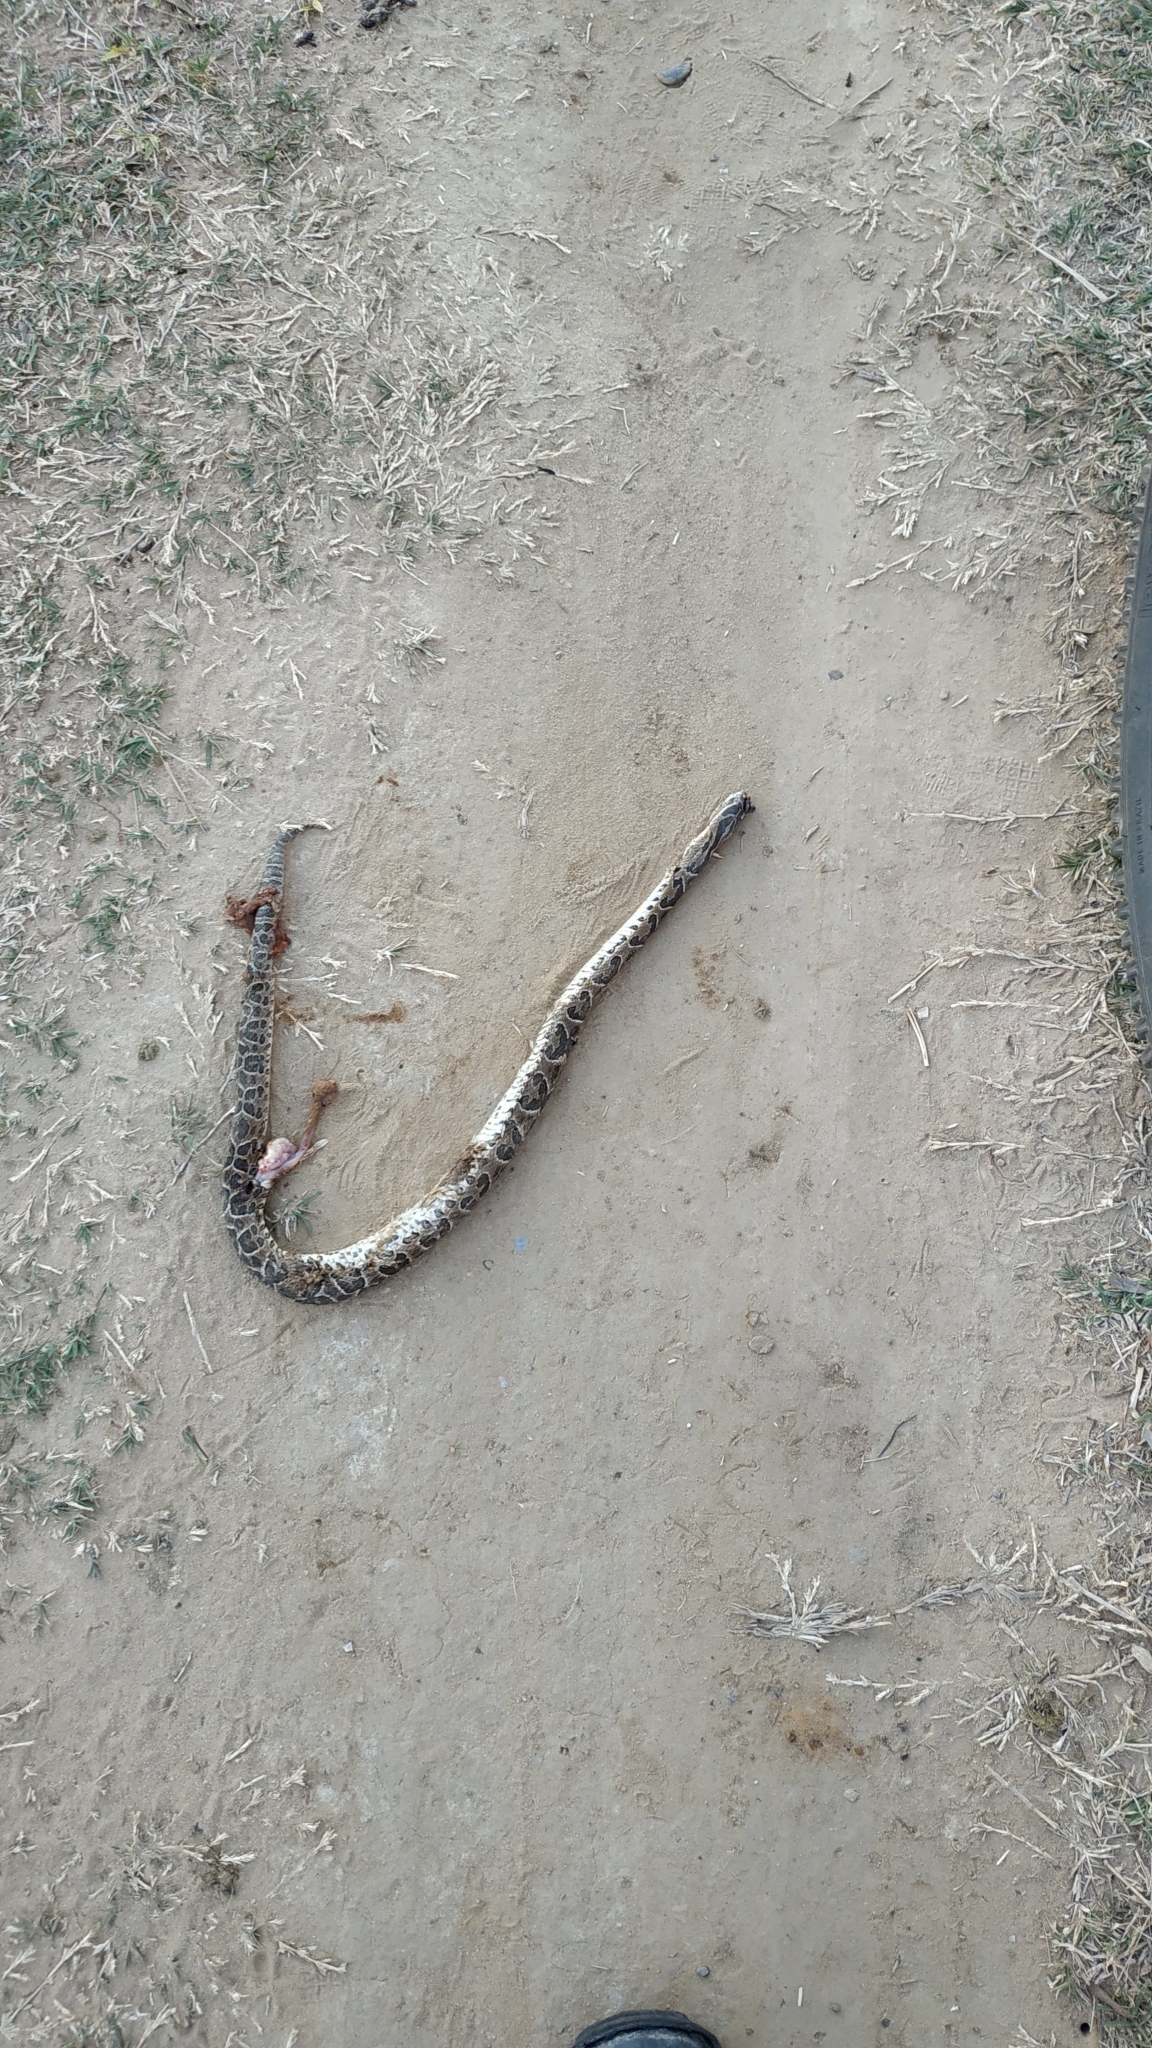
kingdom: Animalia
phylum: Chordata
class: Squamata
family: Viperidae
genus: Bothrops
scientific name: Bothrops alternatus
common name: Urutu
